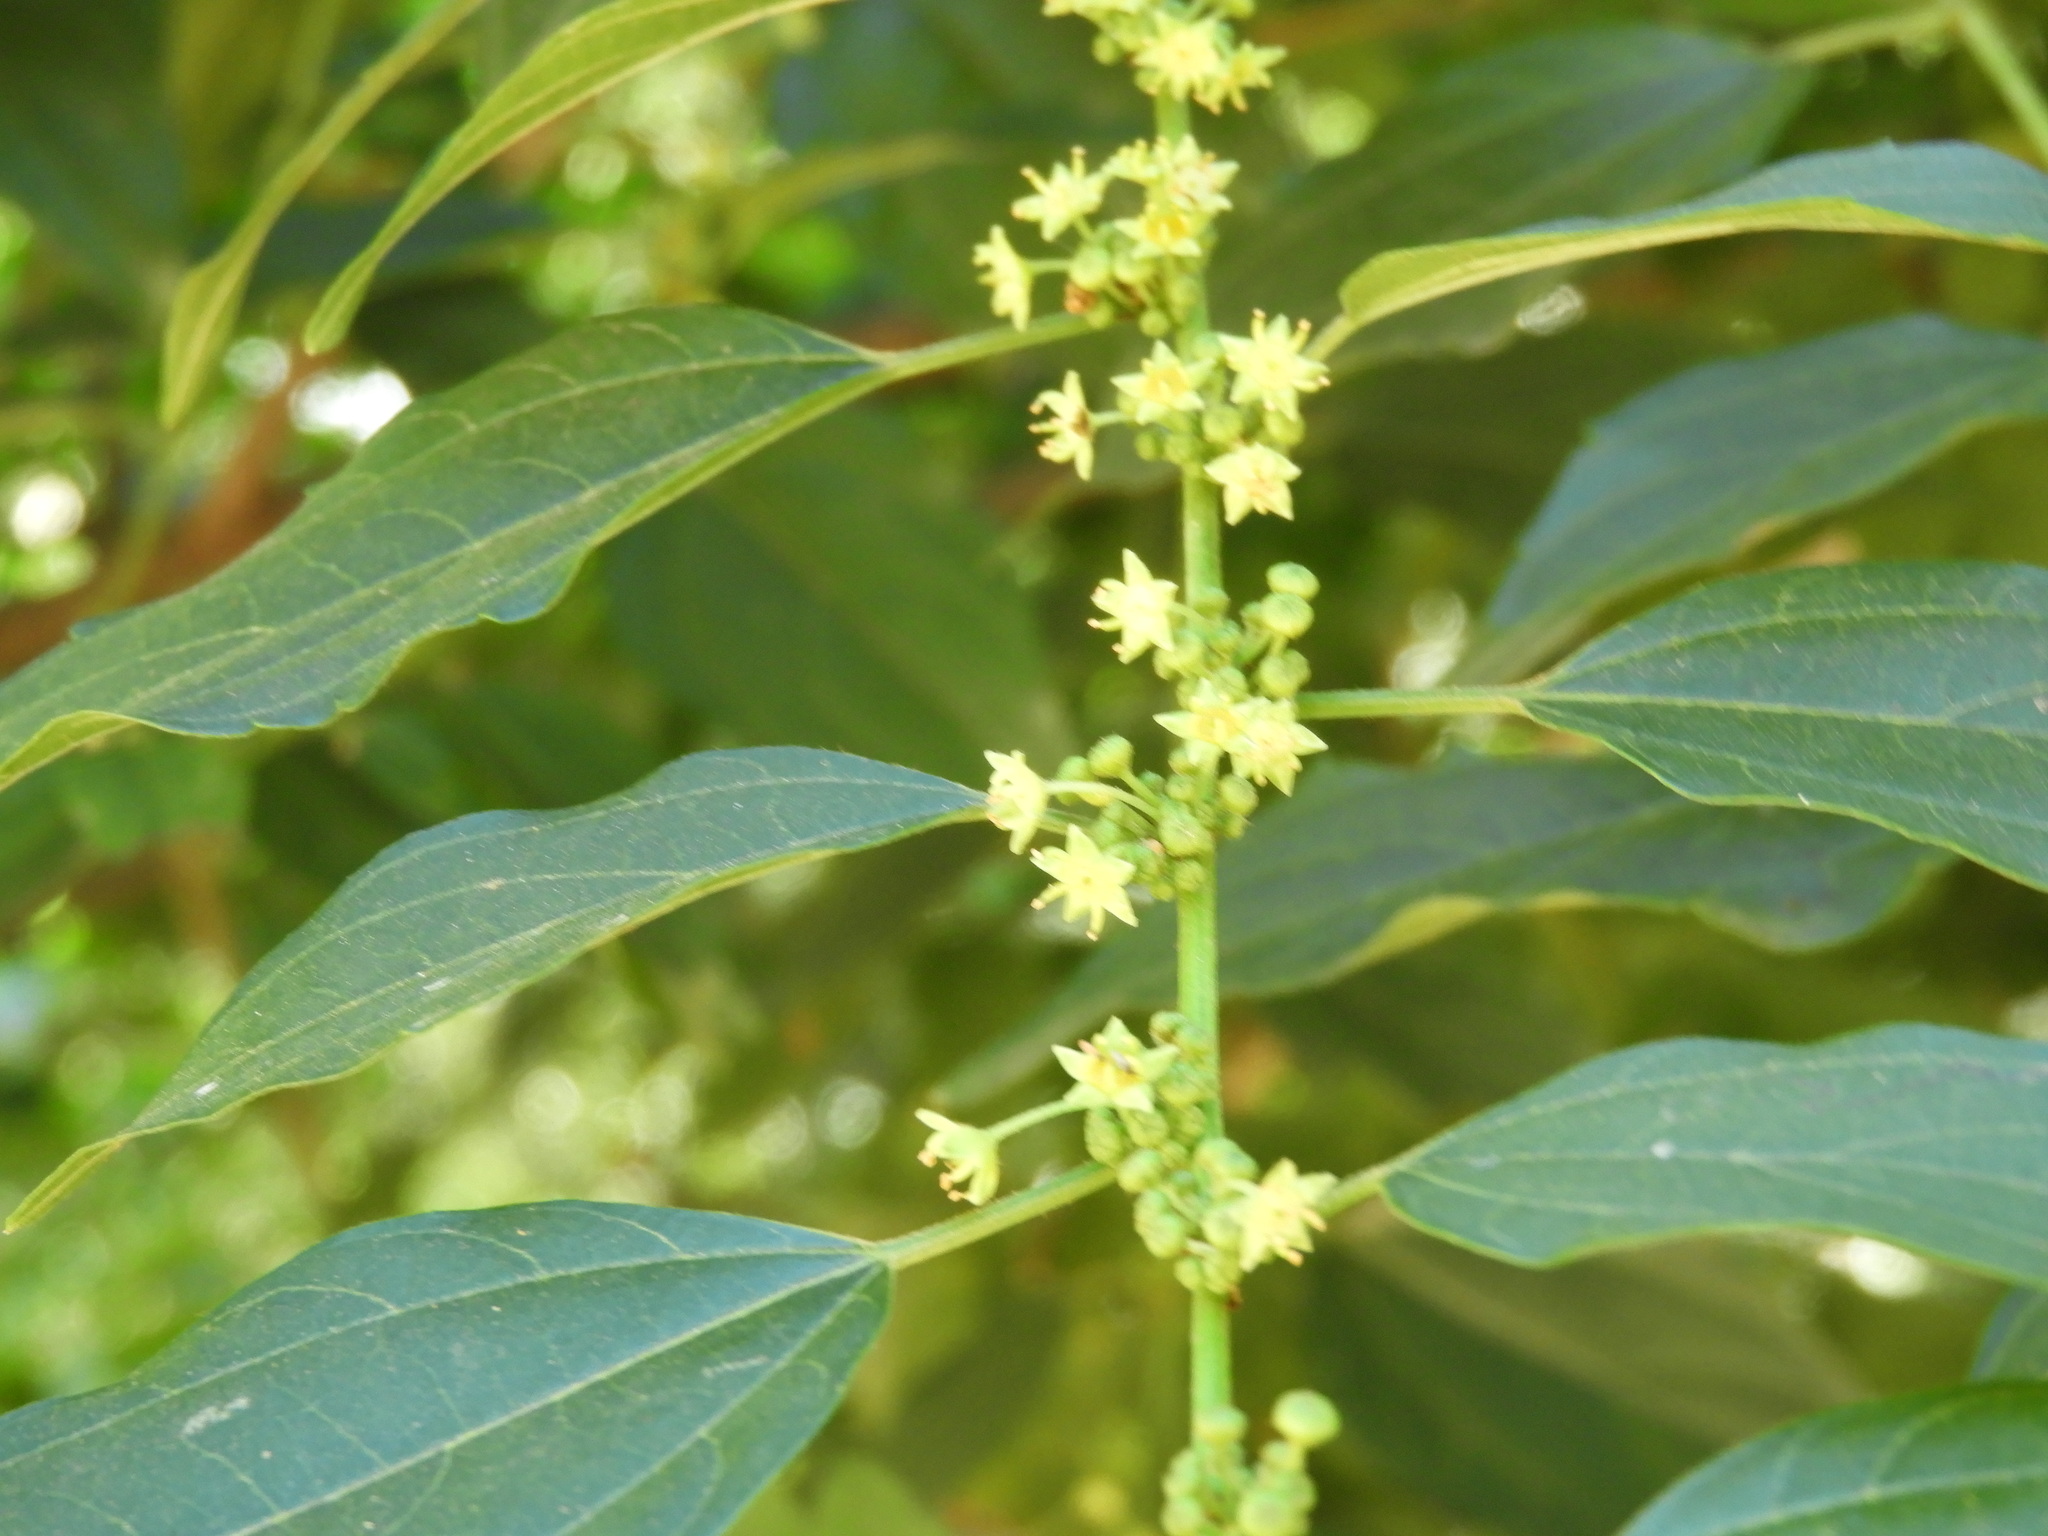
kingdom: Plantae
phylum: Tracheophyta
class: Magnoliopsida
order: Rosales
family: Rhamnaceae
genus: Colubrina
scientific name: Colubrina triflora
